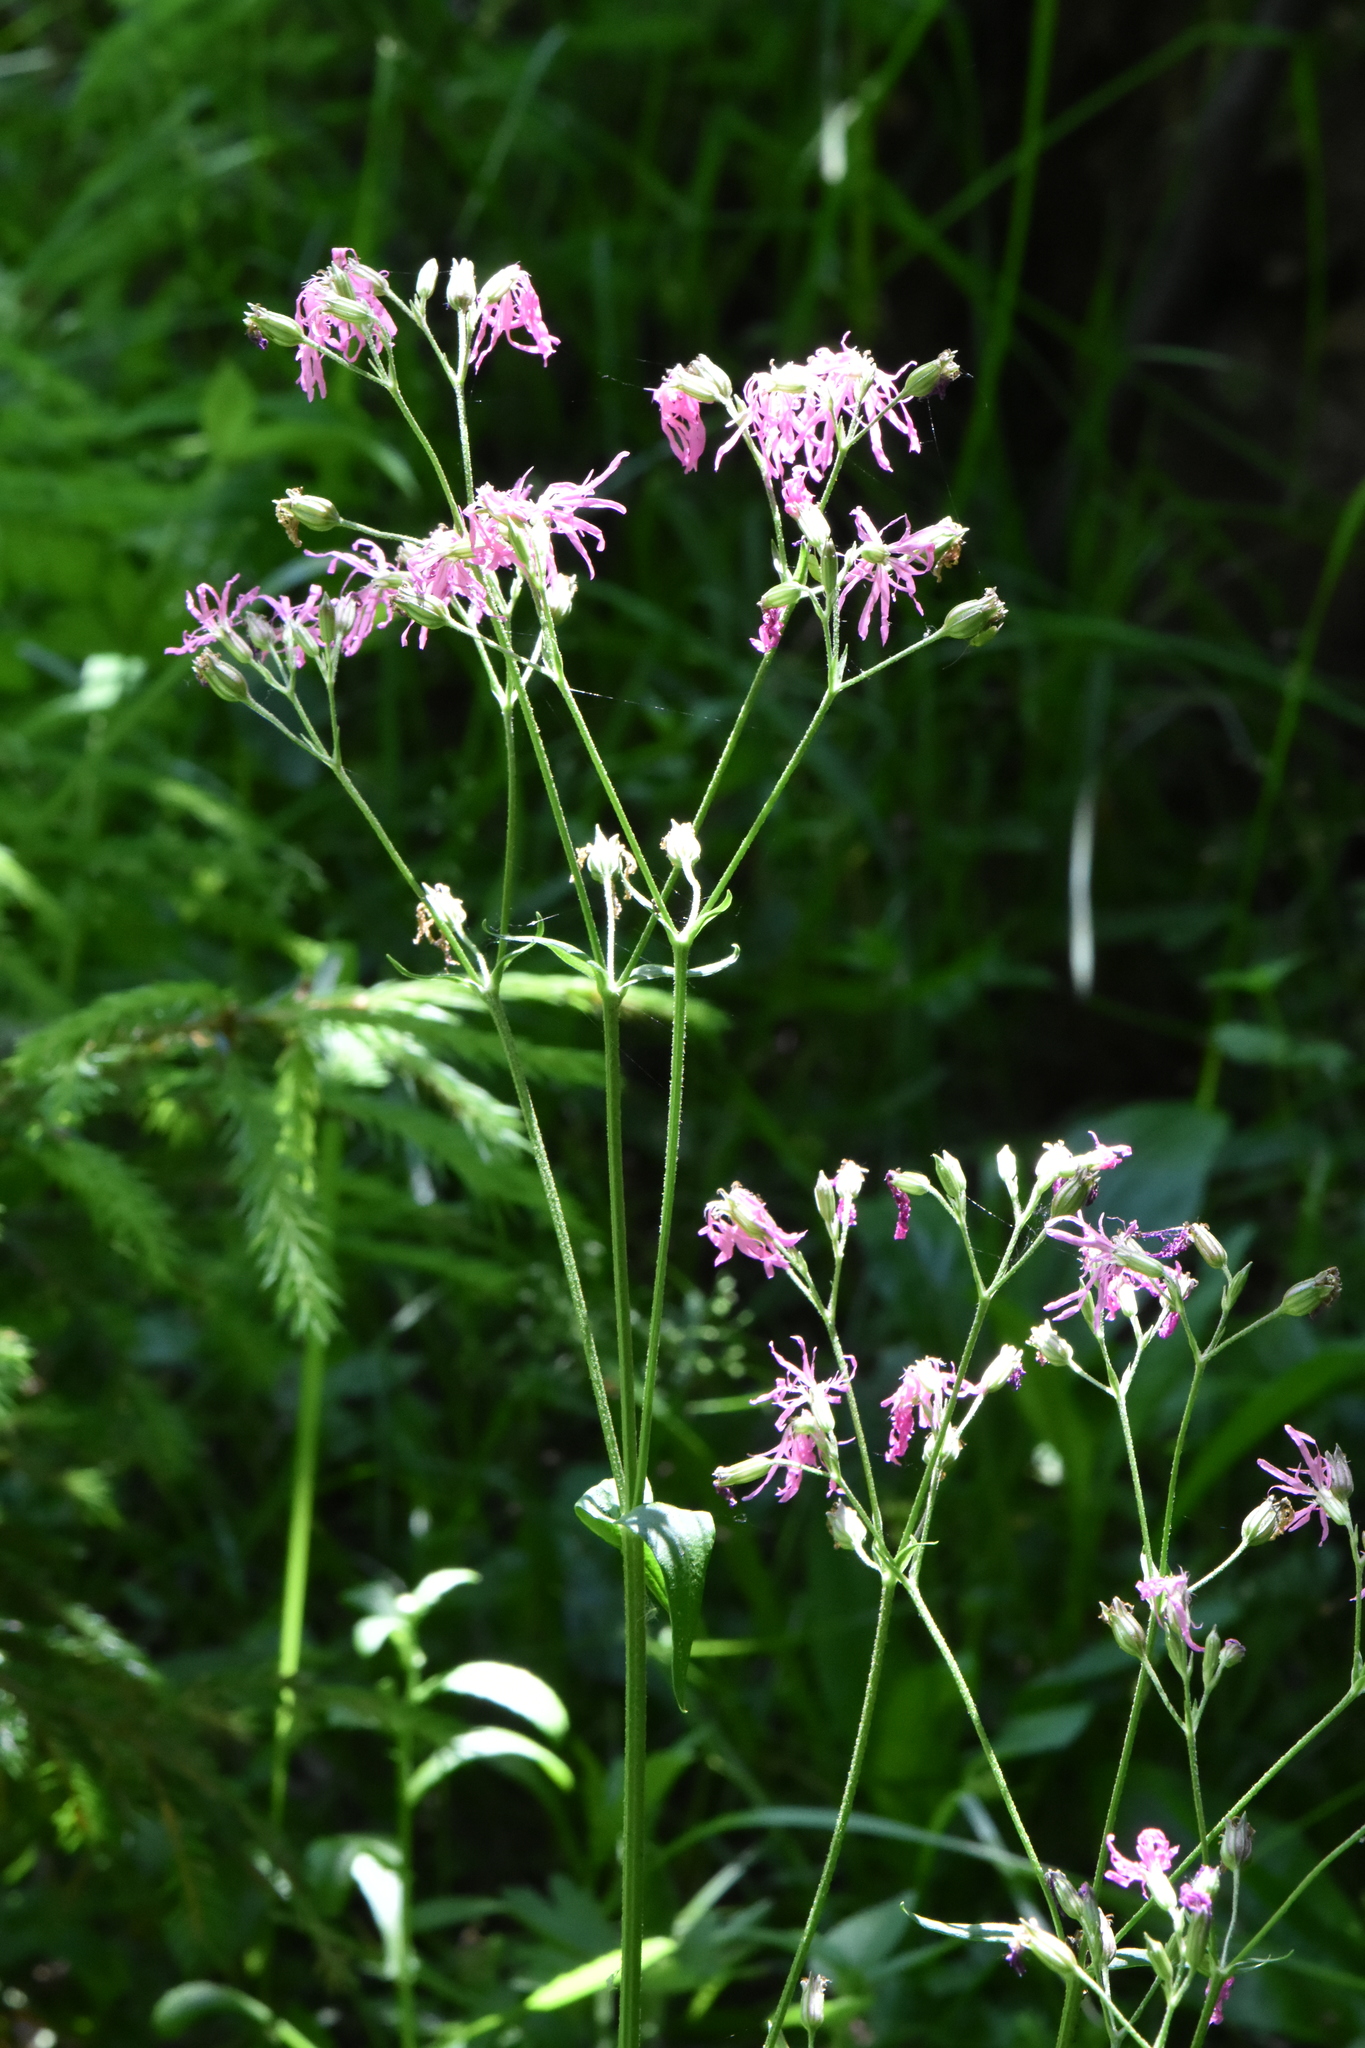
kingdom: Plantae
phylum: Tracheophyta
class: Magnoliopsida
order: Caryophyllales
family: Caryophyllaceae
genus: Silene
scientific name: Silene flos-cuculi
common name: Ragged-robin
